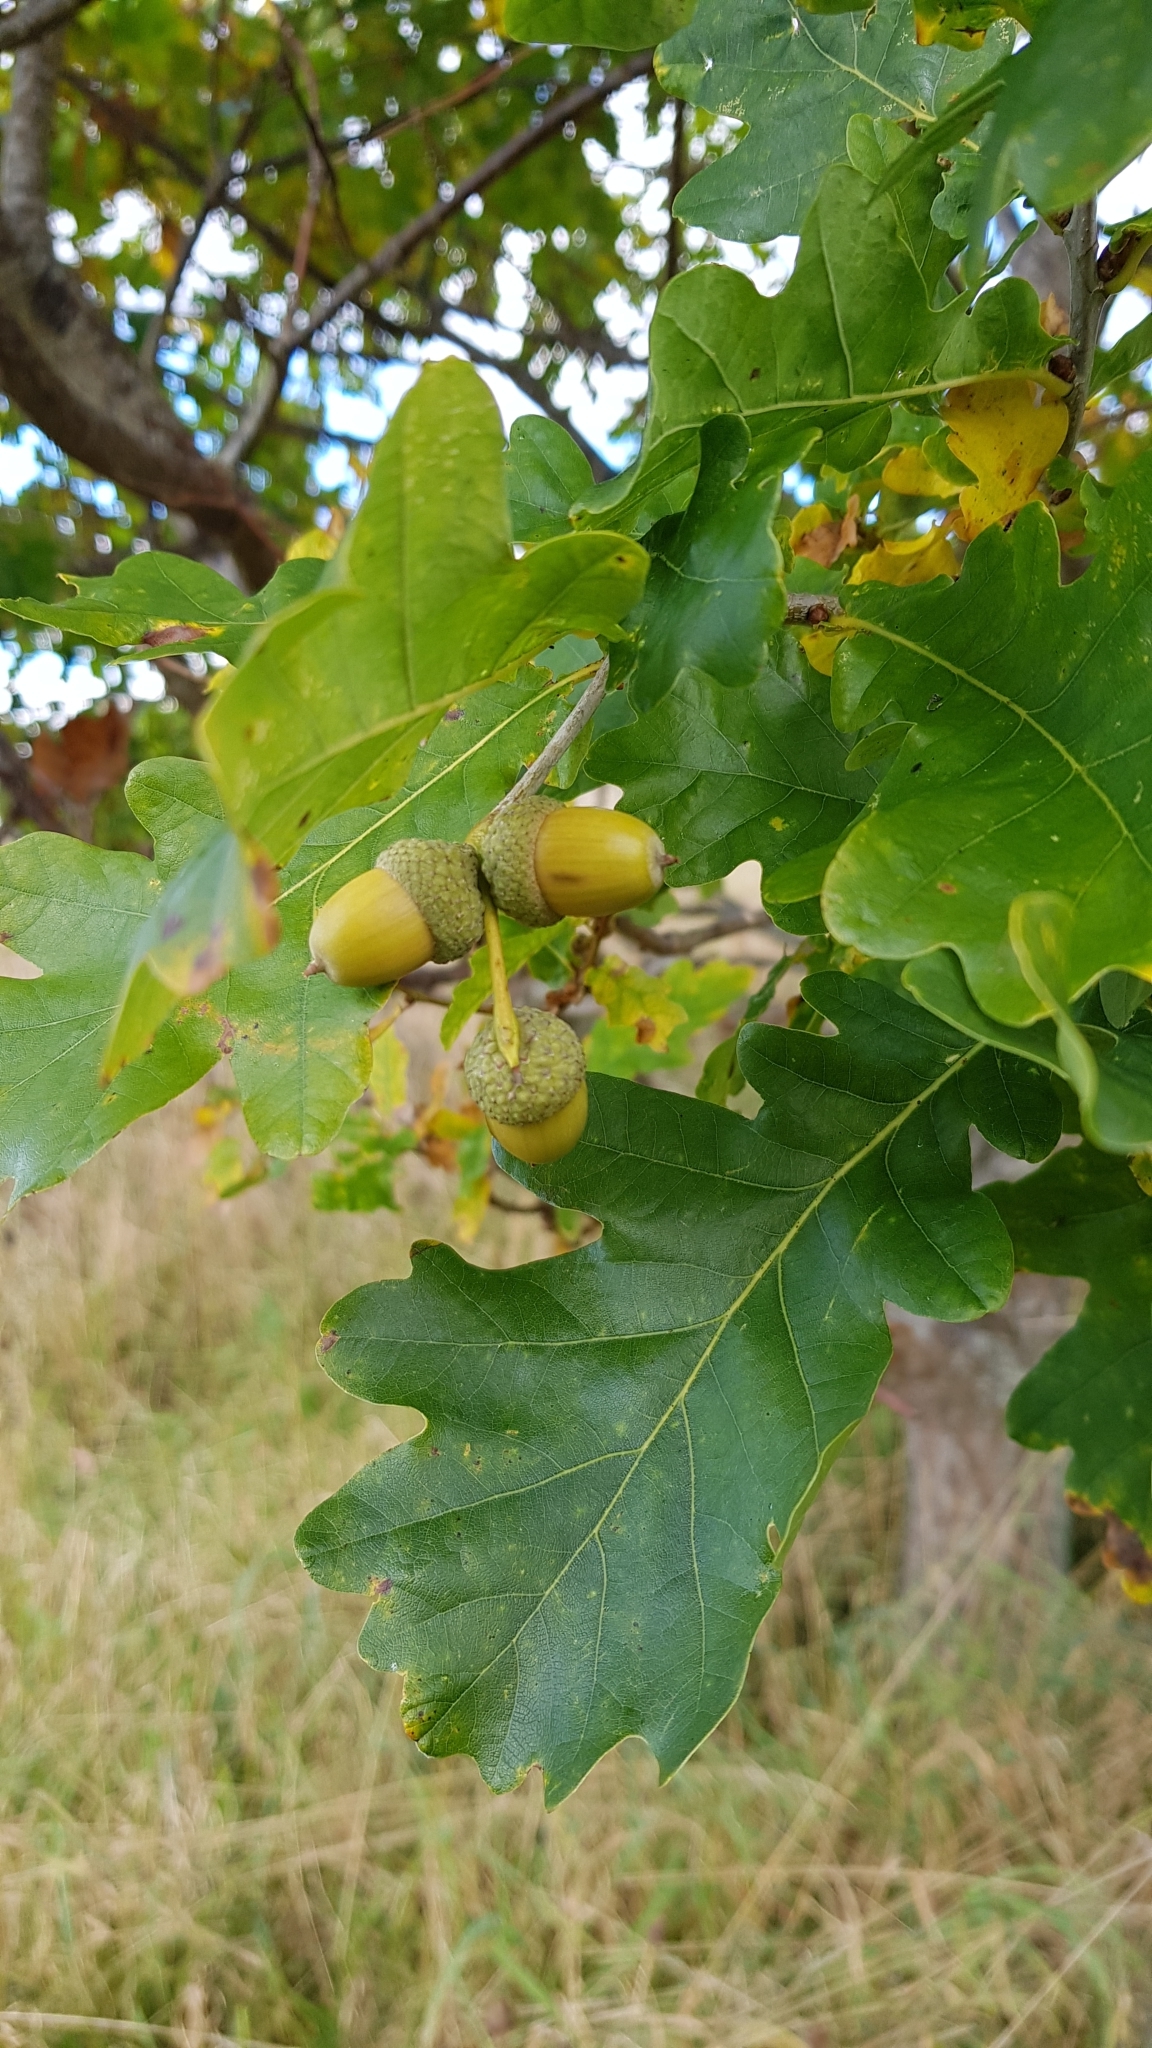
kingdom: Plantae
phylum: Tracheophyta
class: Magnoliopsida
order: Fagales
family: Fagaceae
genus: Quercus
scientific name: Quercus robur
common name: Pedunculate oak
